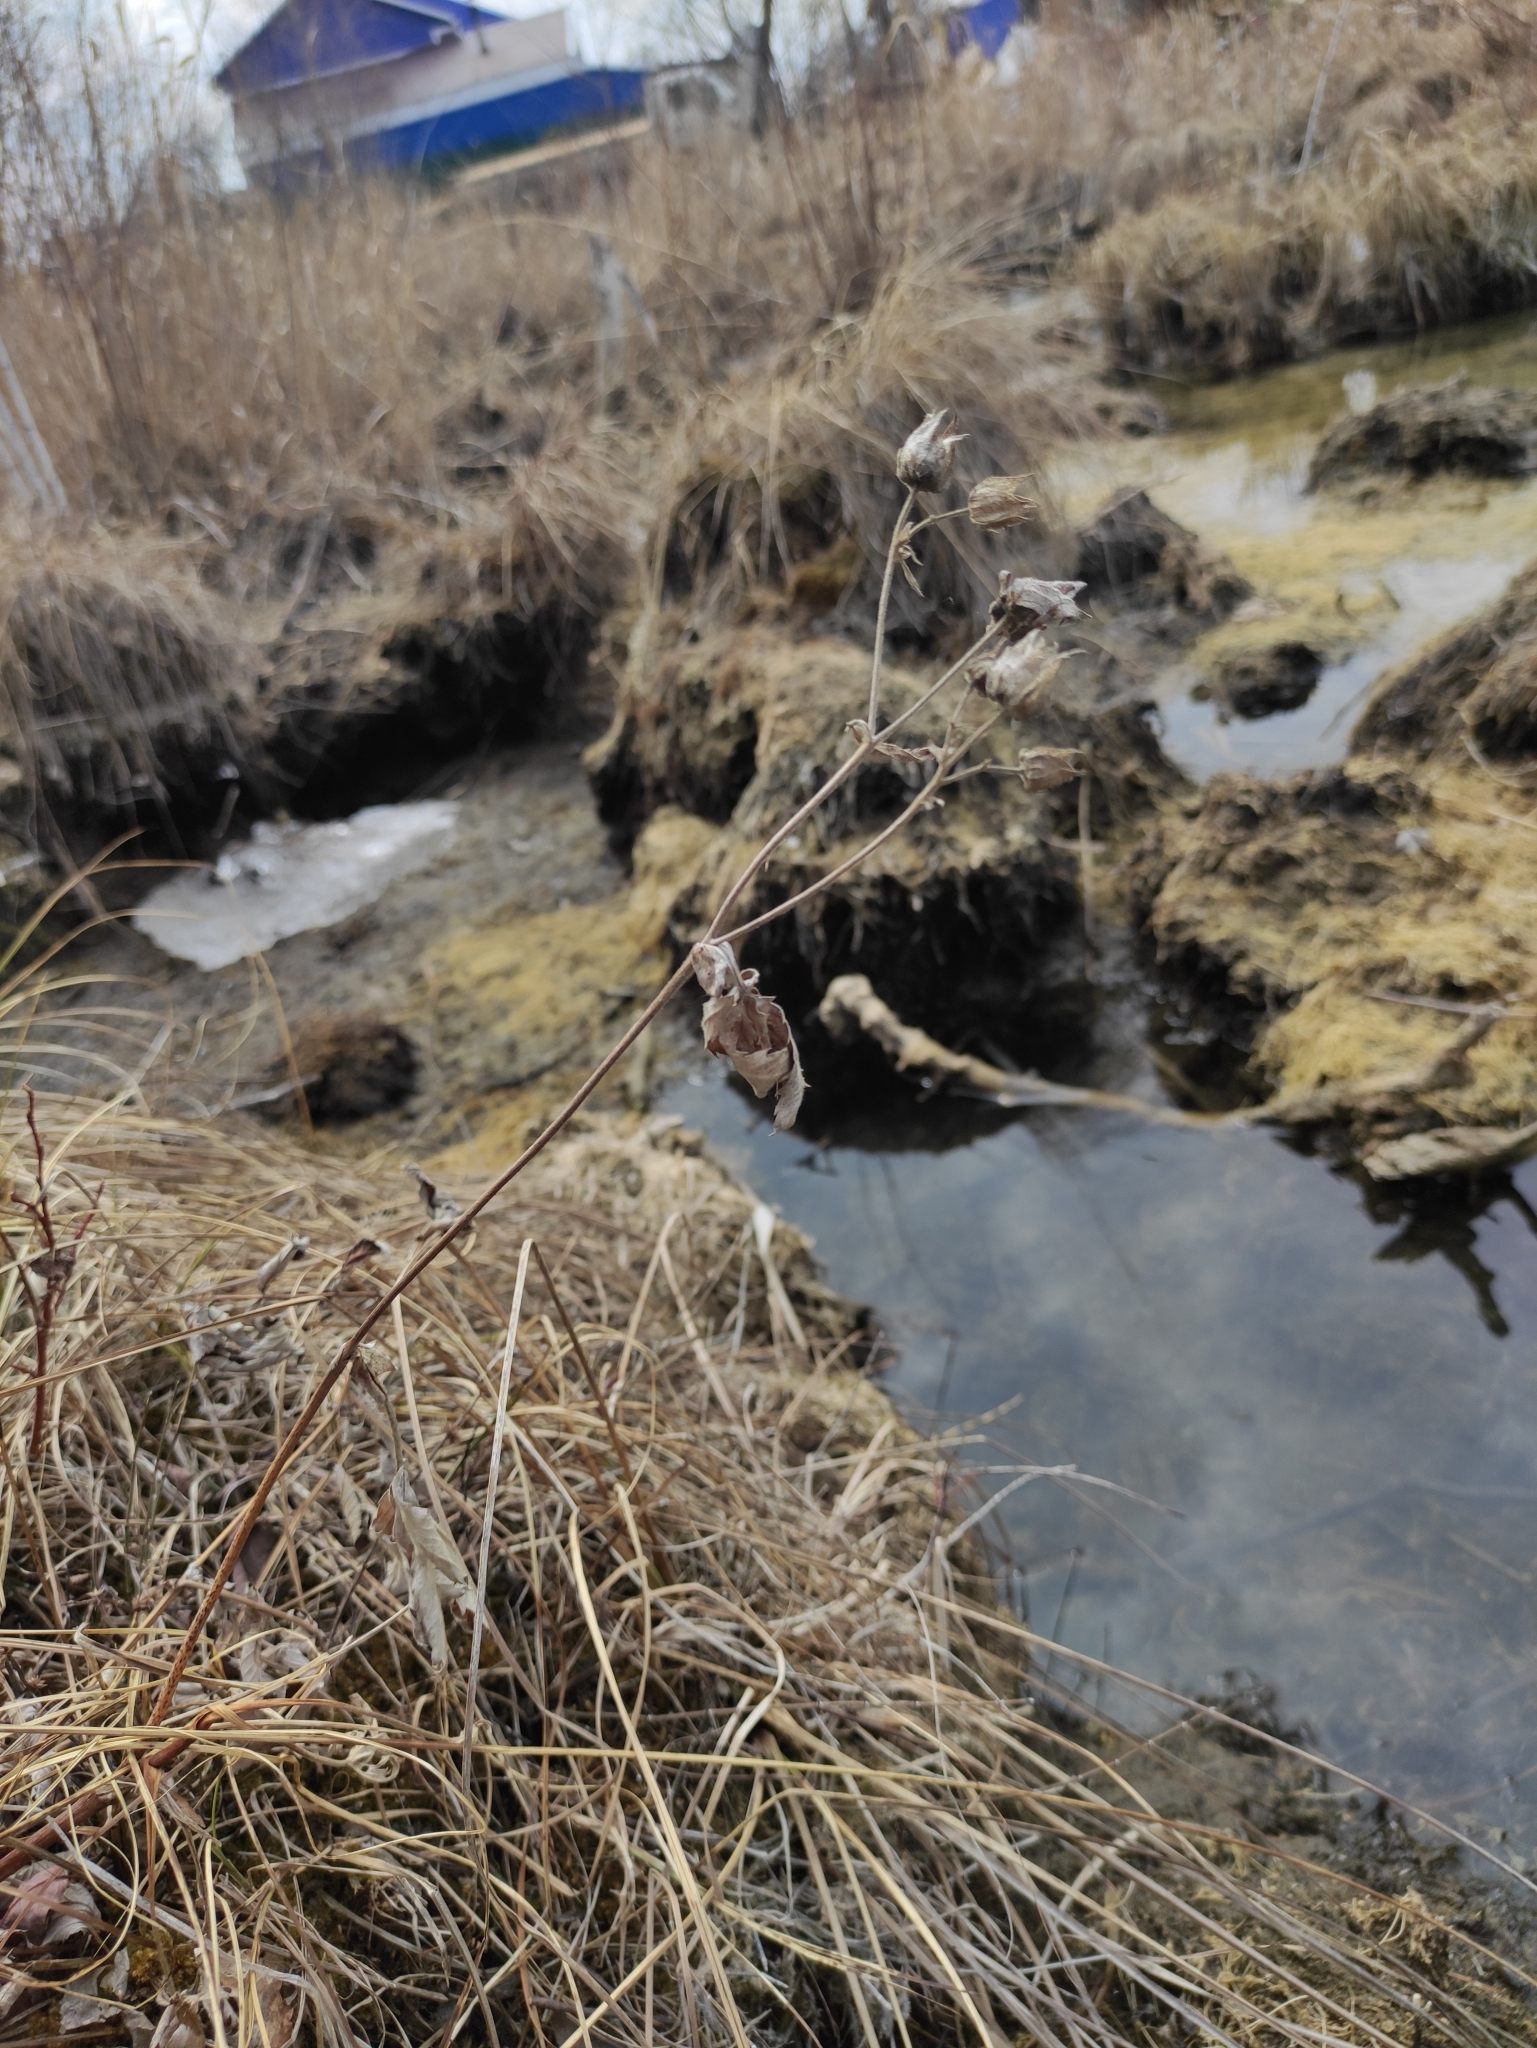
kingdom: Plantae
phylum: Tracheophyta
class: Magnoliopsida
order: Rosales
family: Rosaceae
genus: Comarum
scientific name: Comarum palustre
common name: Marsh cinquefoil
